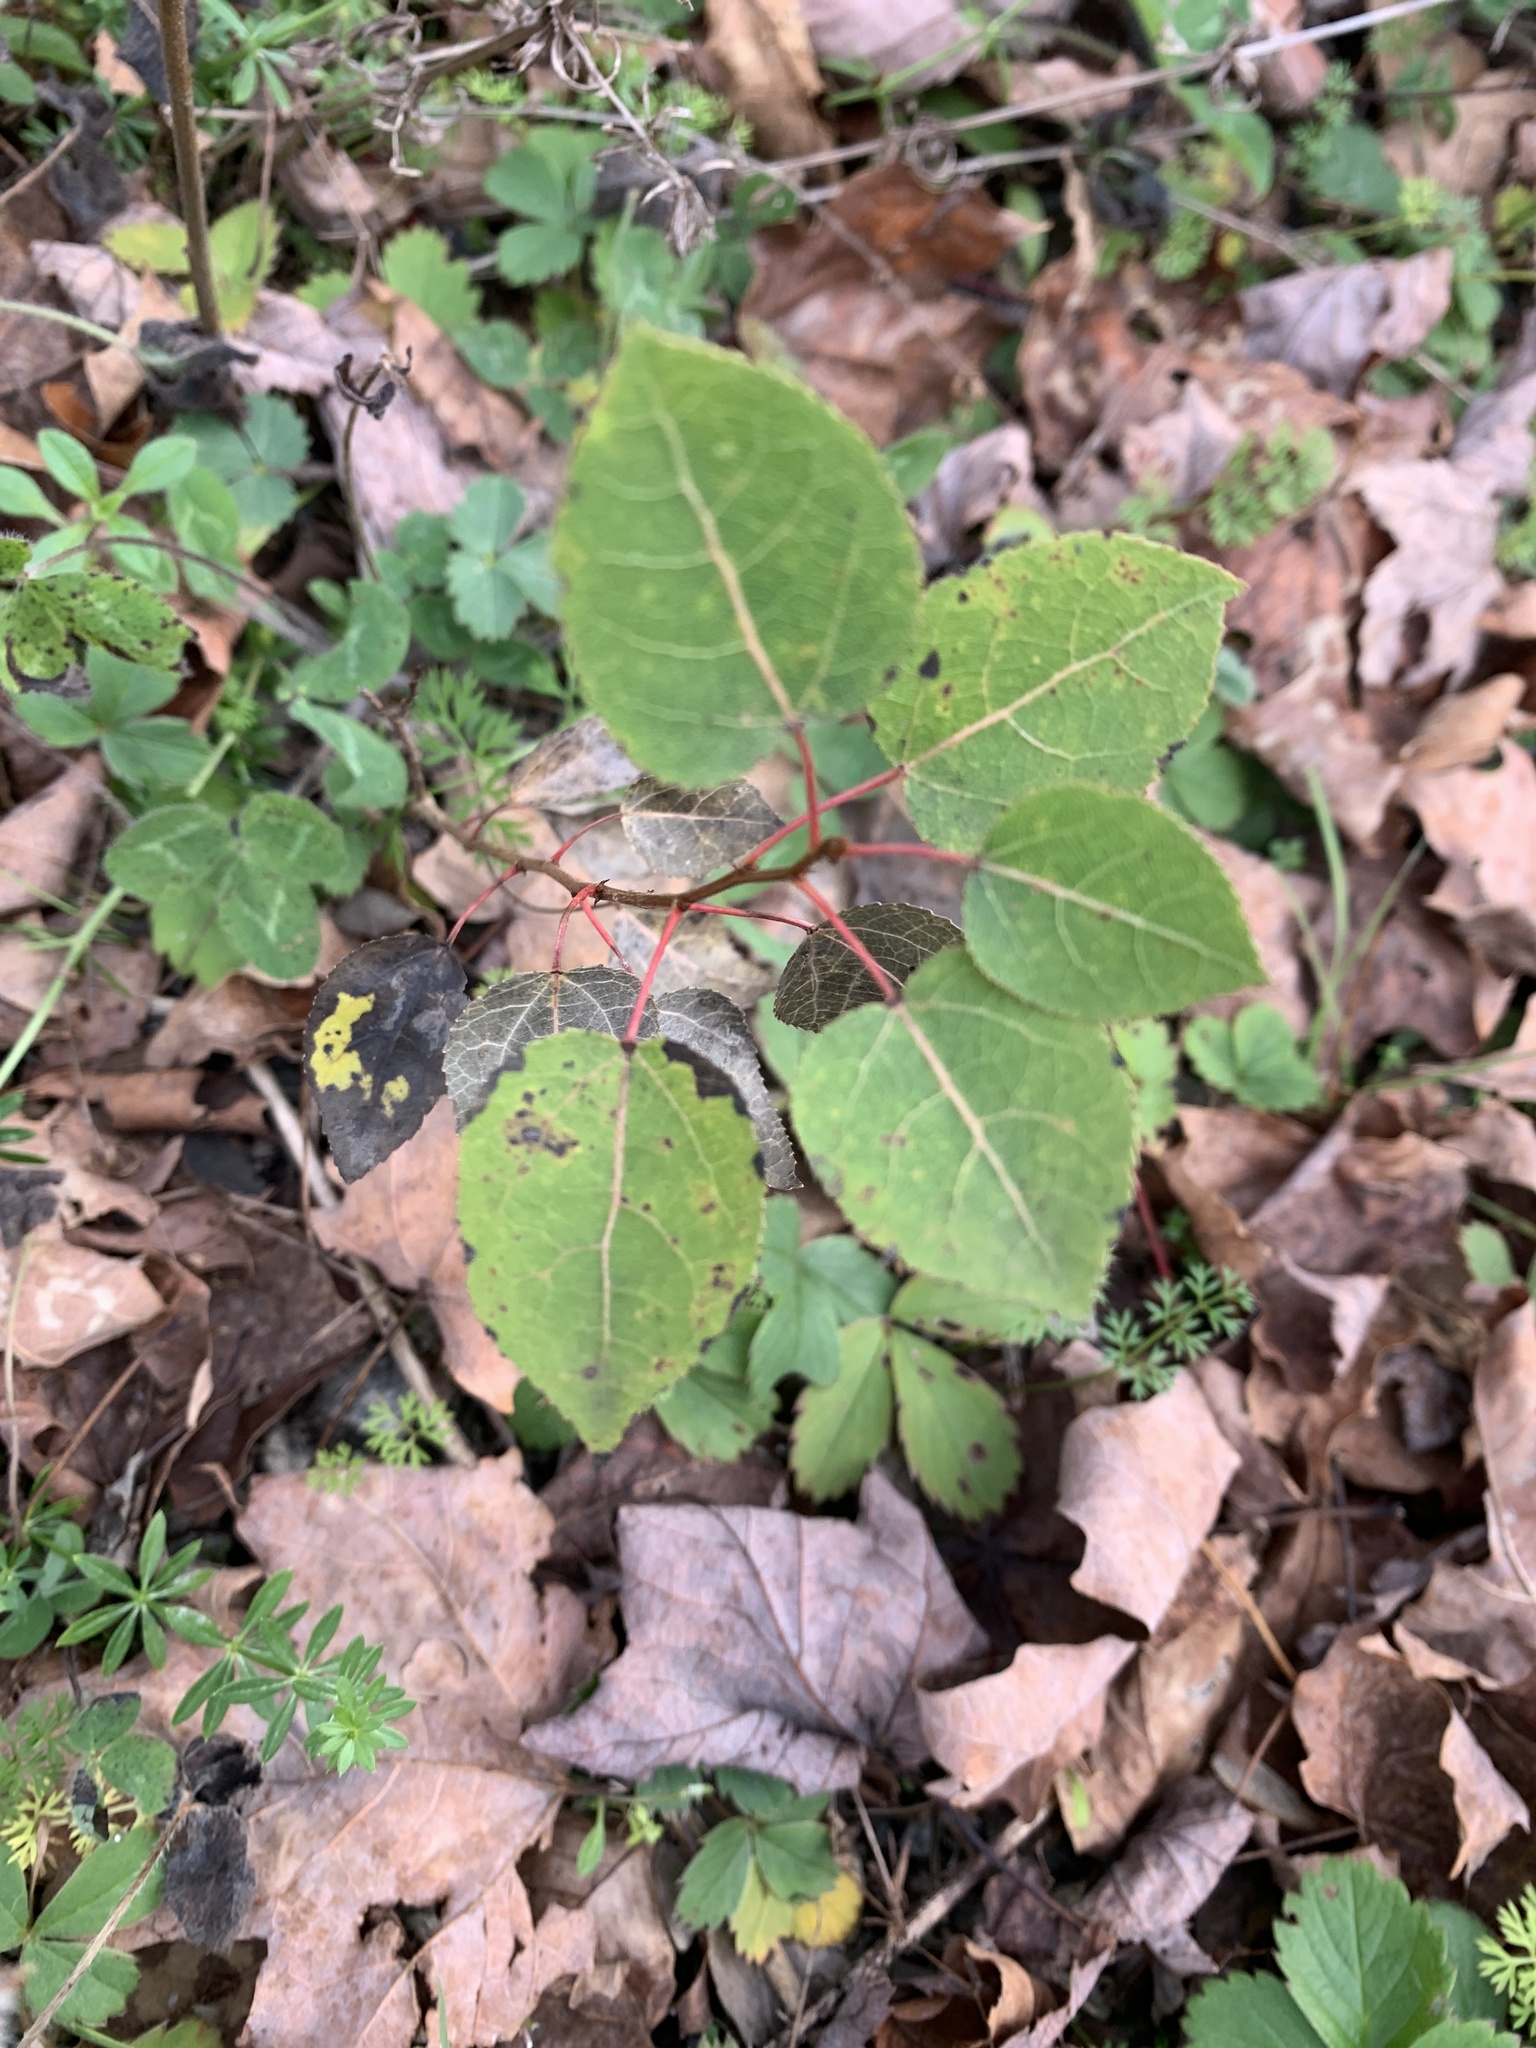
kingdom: Plantae
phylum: Tracheophyta
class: Magnoliopsida
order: Malpighiales
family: Salicaceae
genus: Populus
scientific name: Populus tremuloides
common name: Quaking aspen
